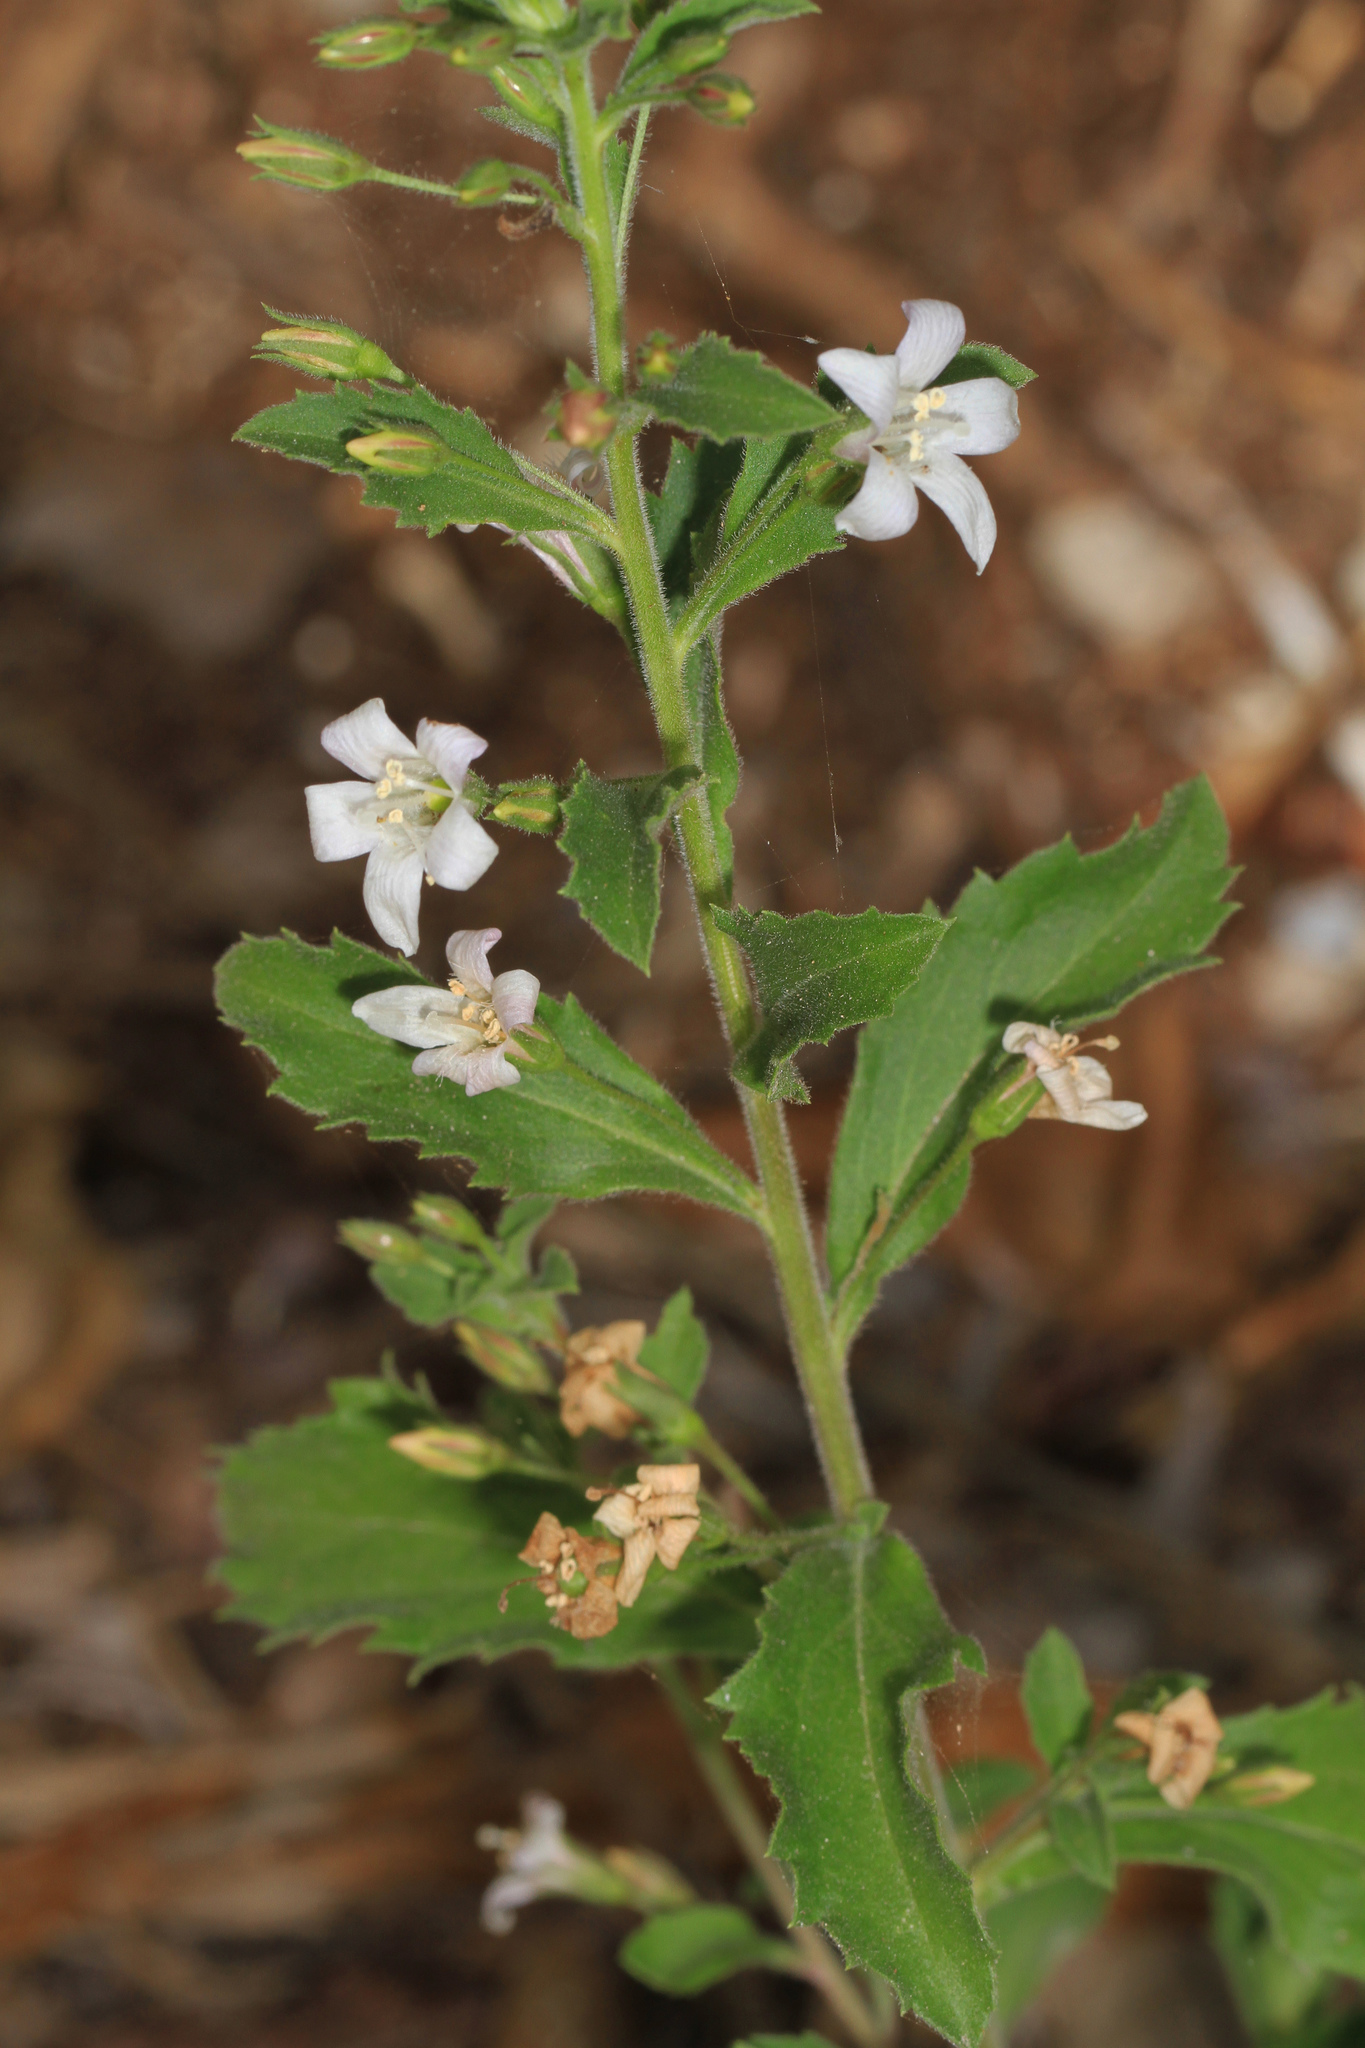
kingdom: Plantae
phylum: Tracheophyta
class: Magnoliopsida
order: Lamiales
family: Scrophulariaceae
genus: Capraria
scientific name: Capraria biflora
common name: Goatweed
